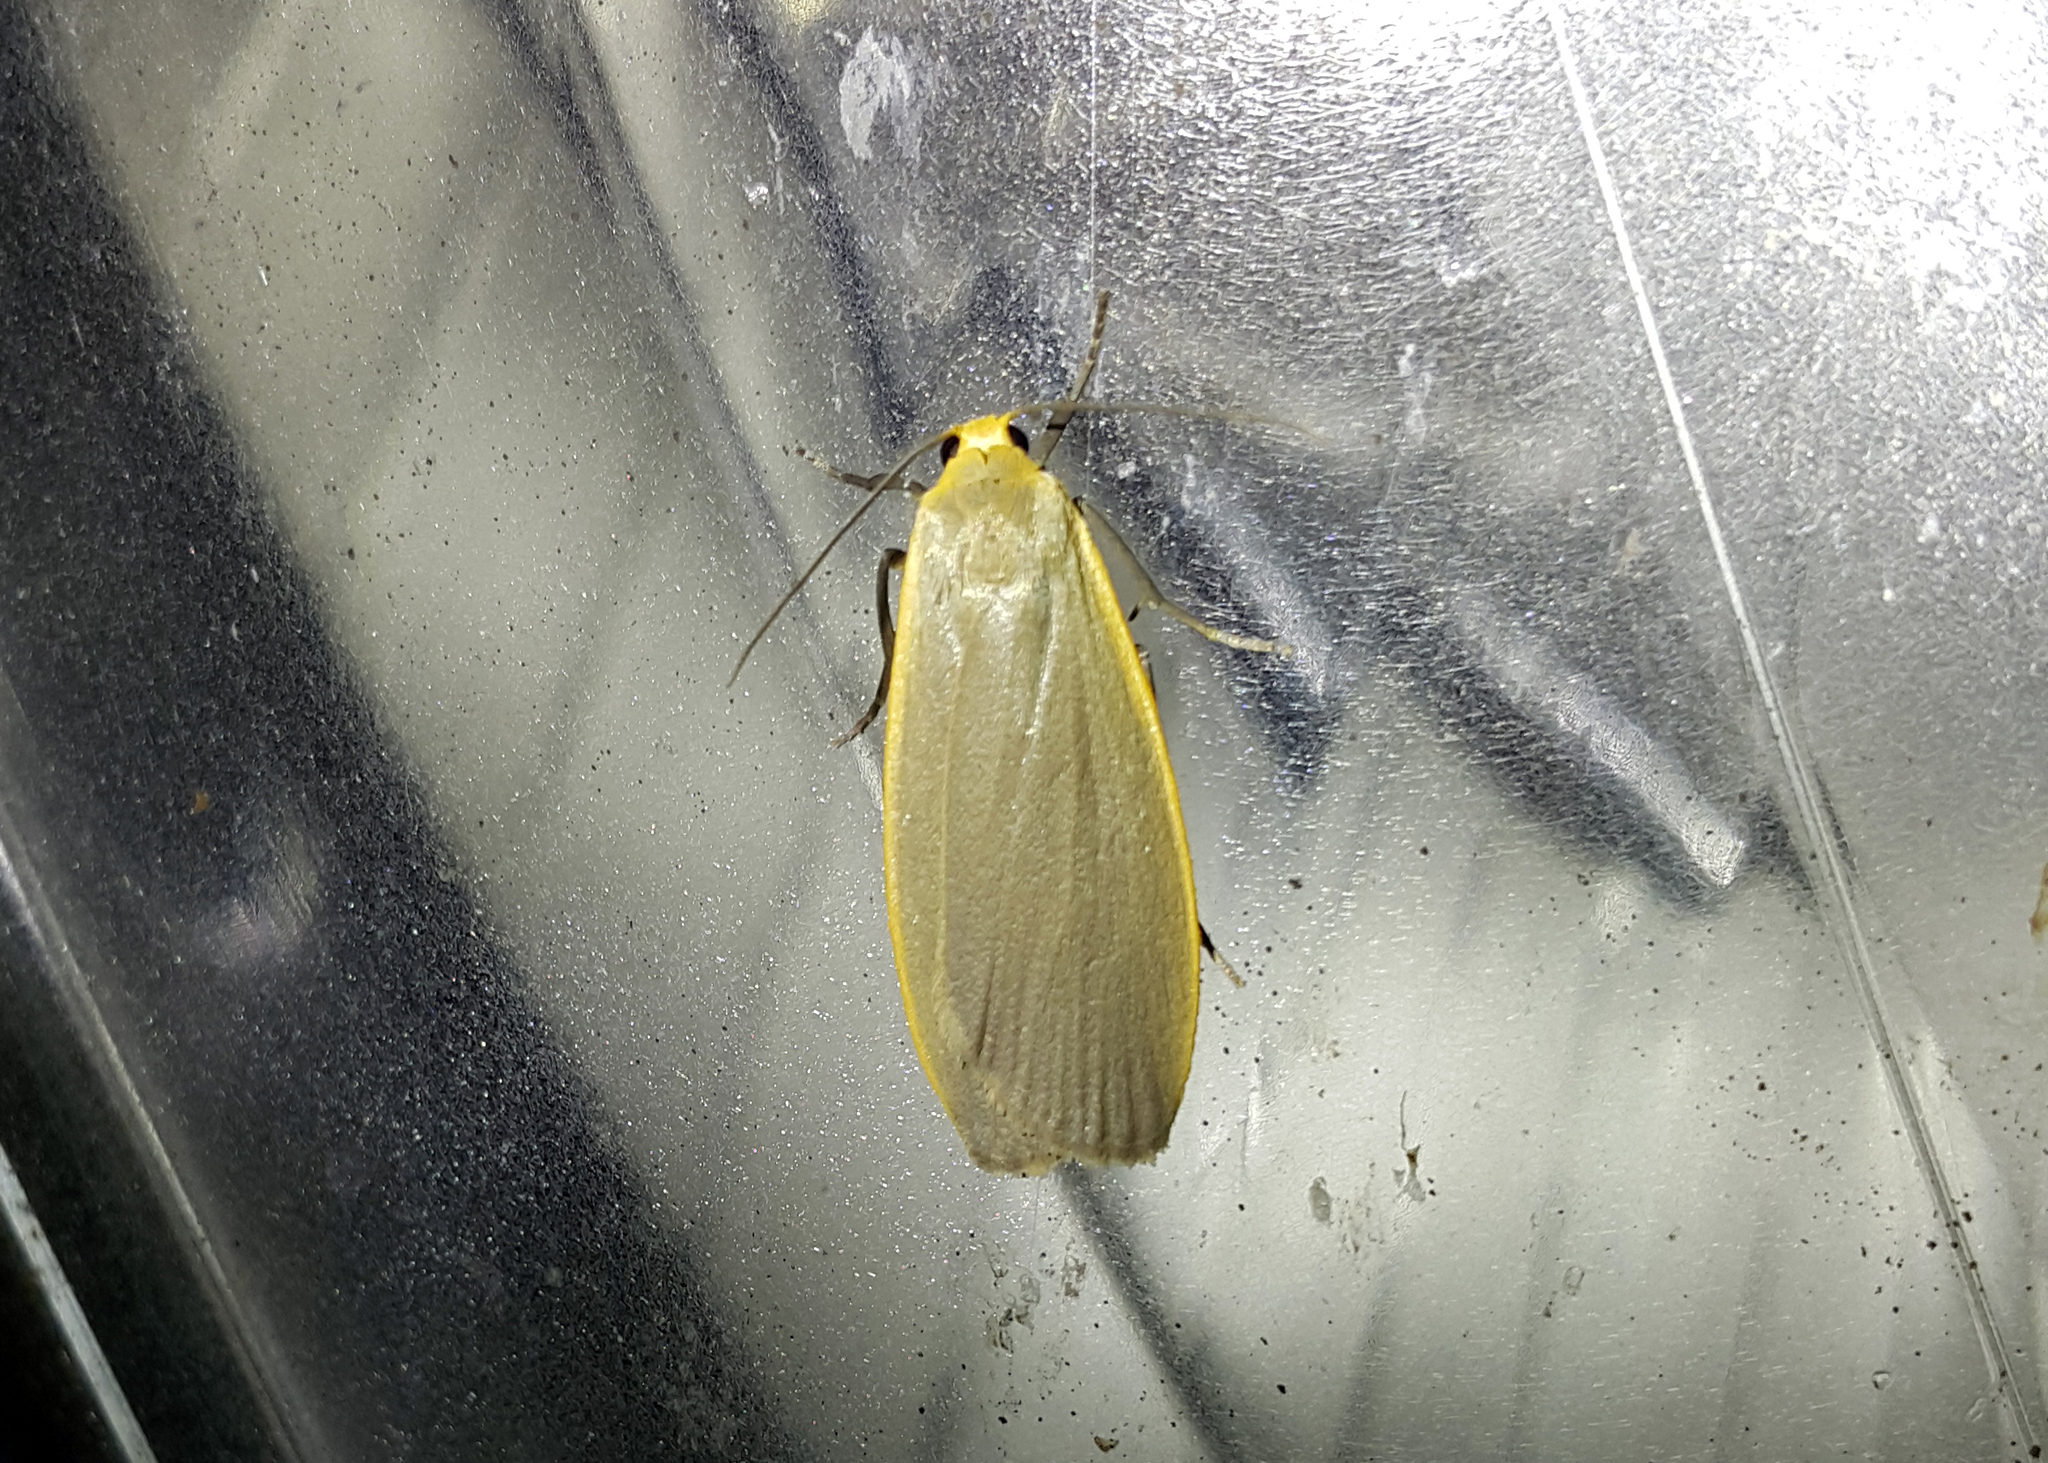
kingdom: Animalia
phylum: Arthropoda
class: Insecta
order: Lepidoptera
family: Erebidae
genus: Collita
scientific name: Collita griseola
